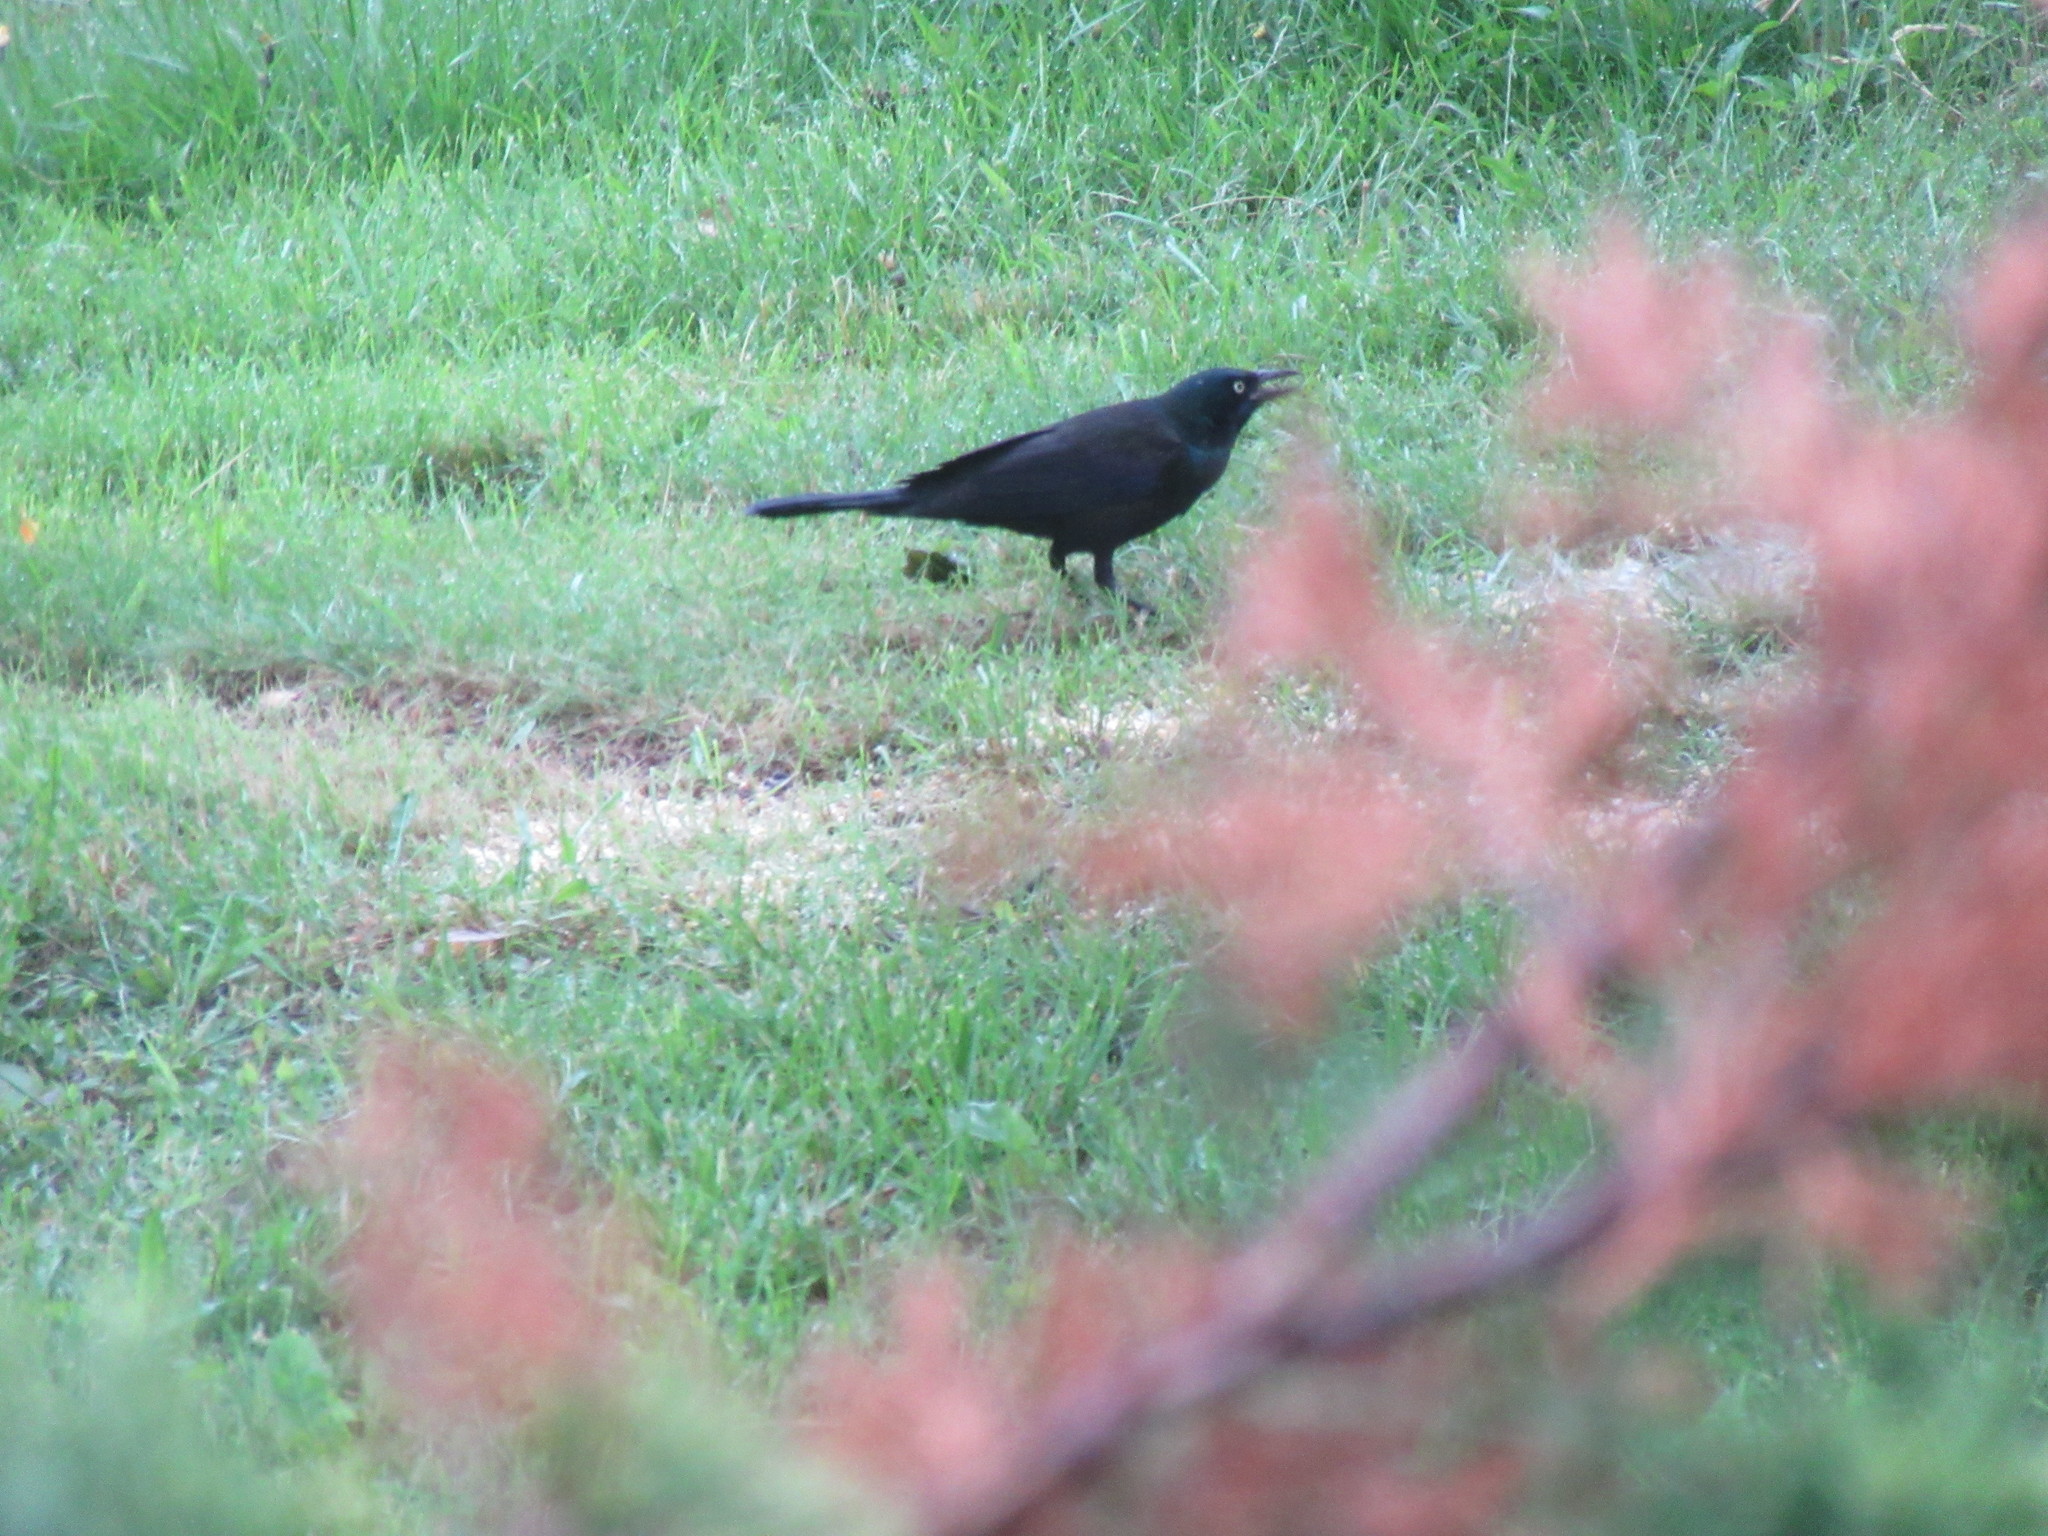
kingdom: Animalia
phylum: Chordata
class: Aves
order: Passeriformes
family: Icteridae
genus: Quiscalus
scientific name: Quiscalus quiscula
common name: Common grackle
